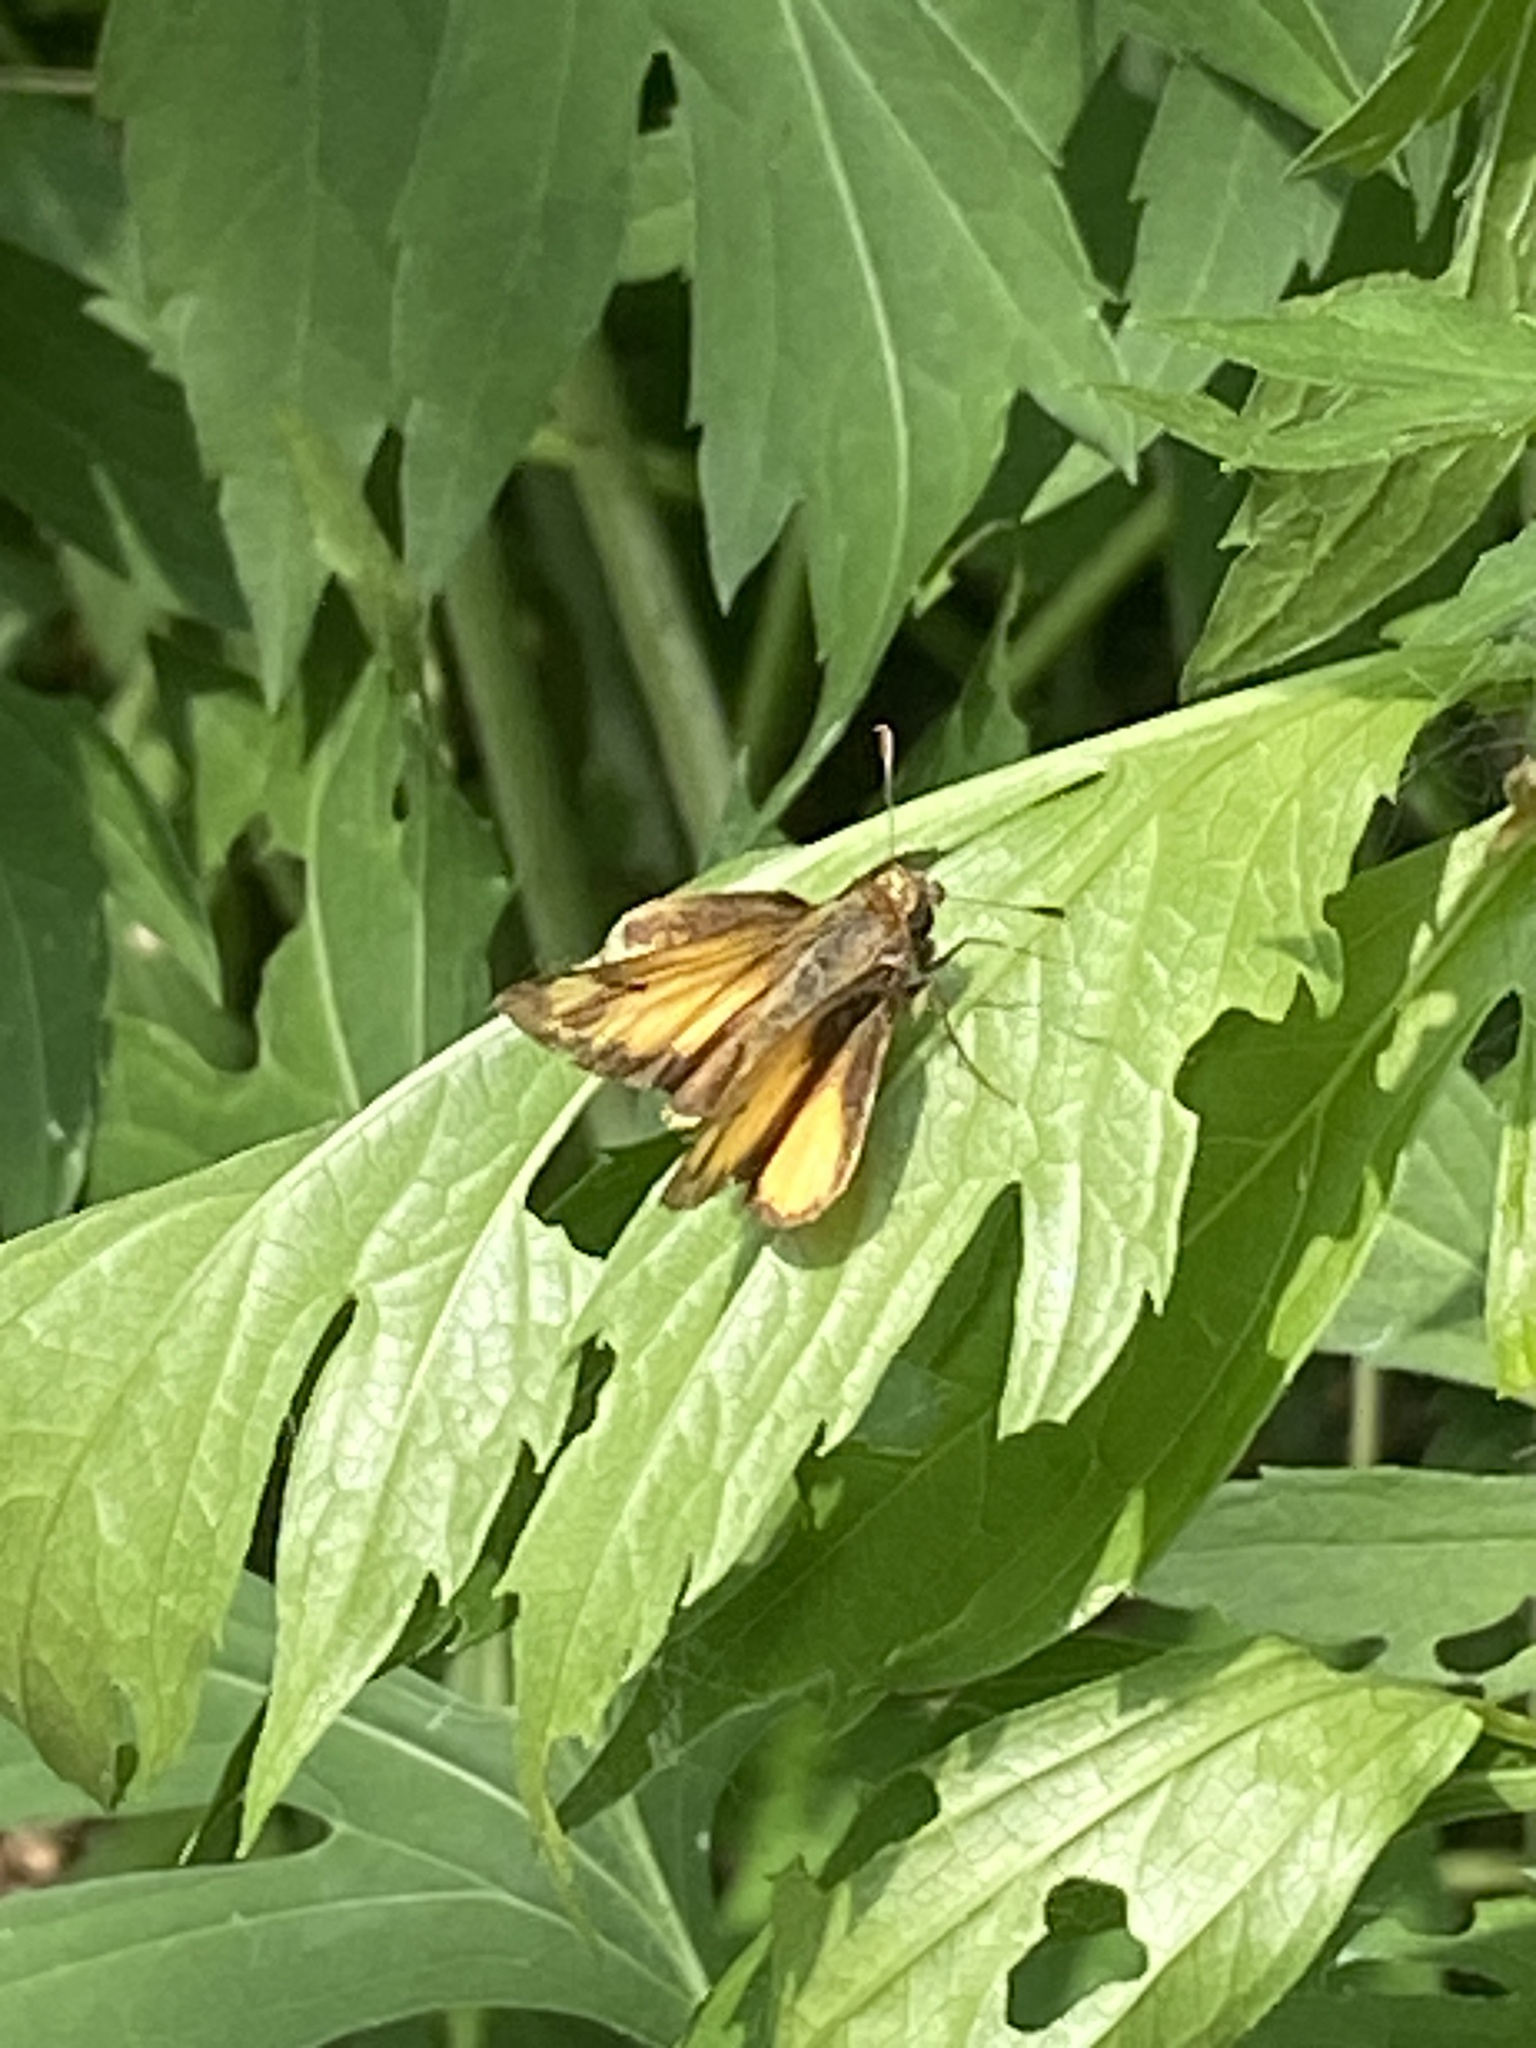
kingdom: Animalia
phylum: Arthropoda
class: Insecta
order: Lepidoptera
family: Hesperiidae
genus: Lon
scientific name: Lon zabulon
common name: Zabulon skipper
